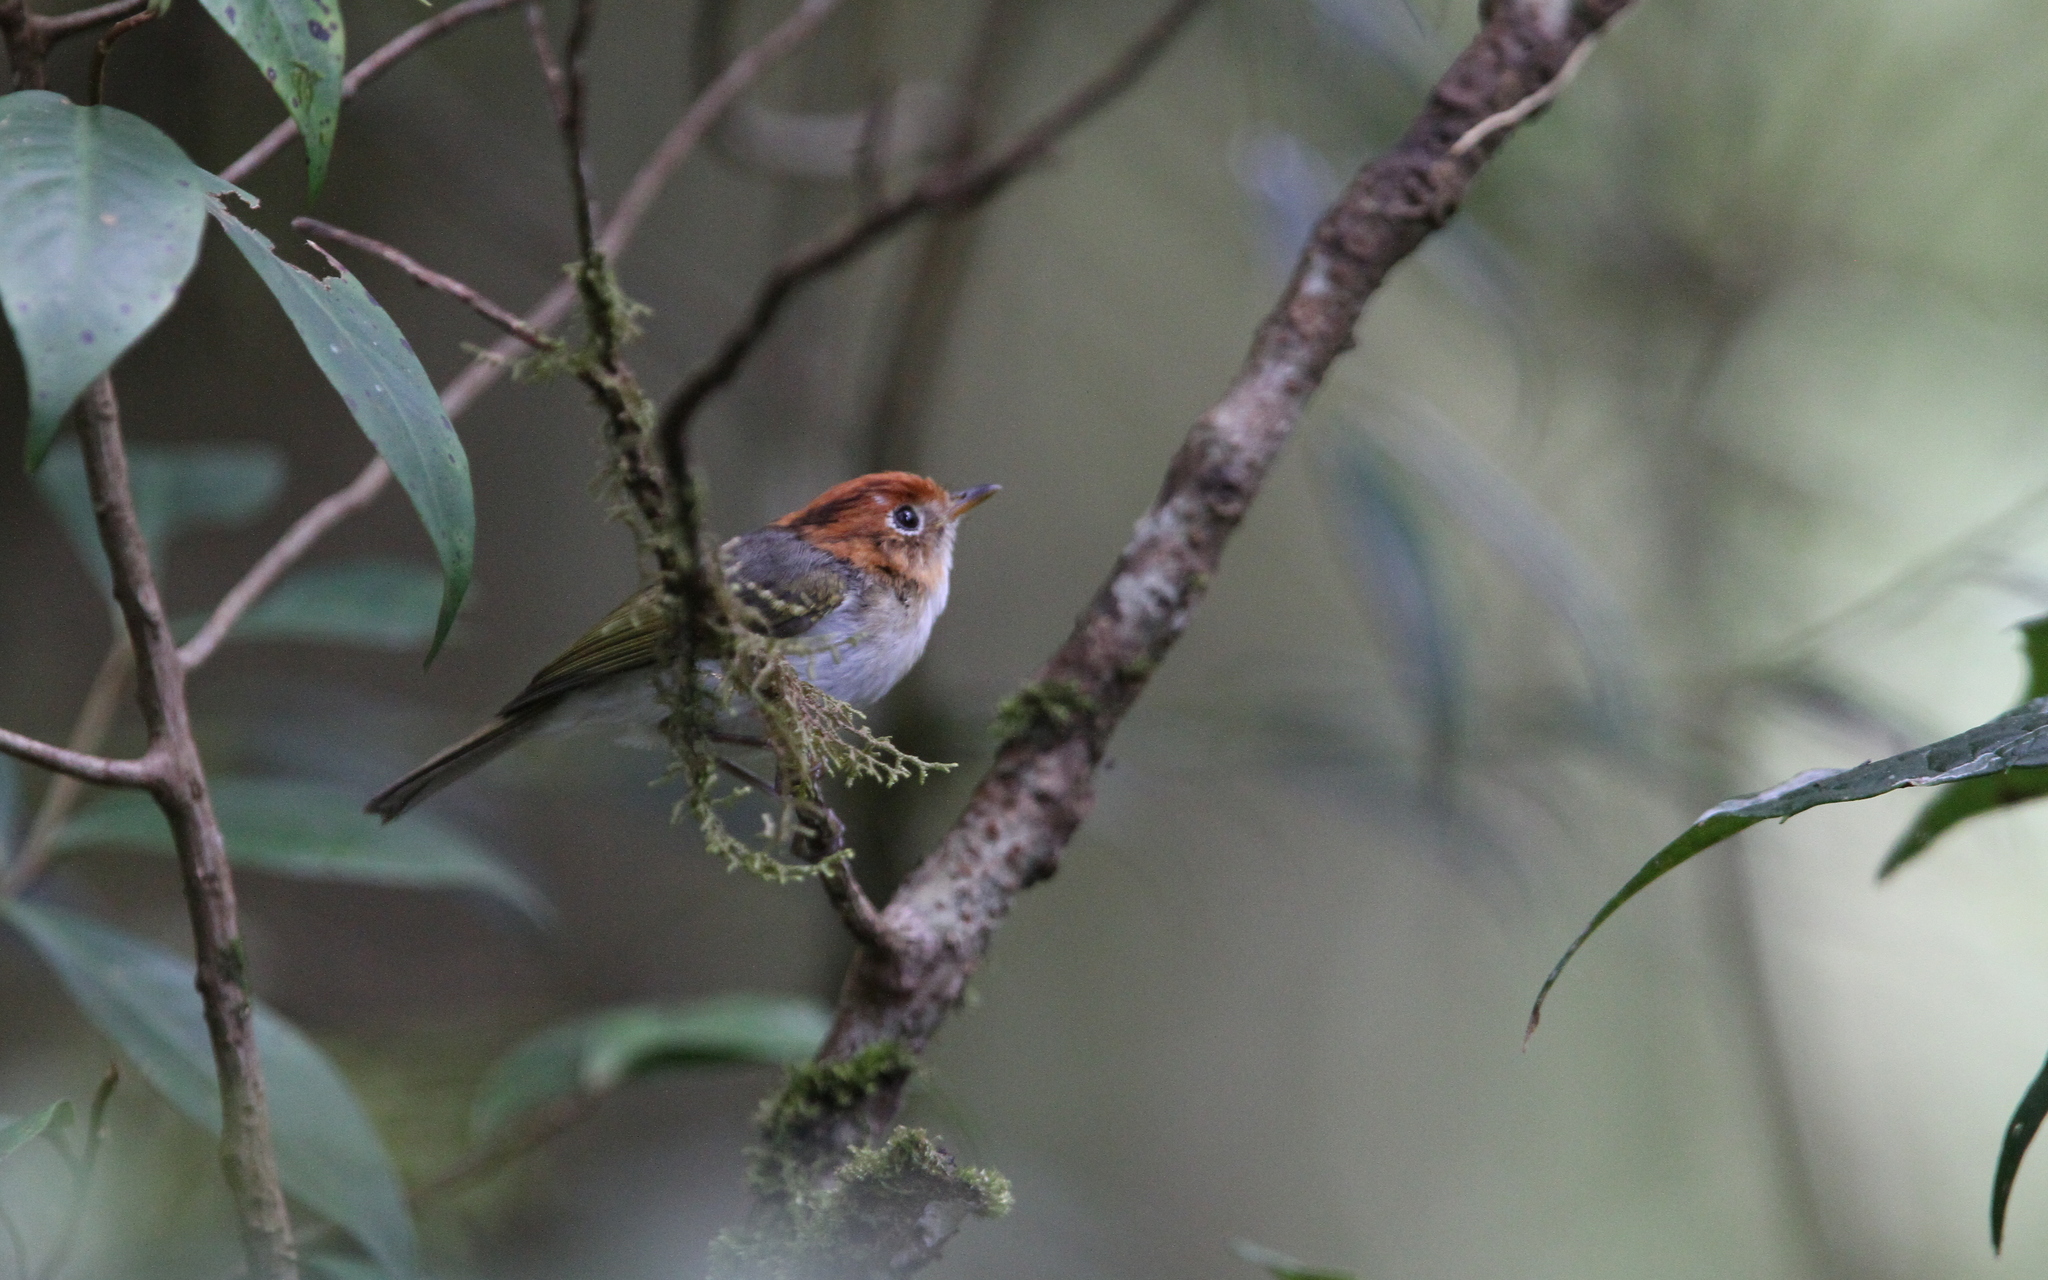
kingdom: Animalia
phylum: Chordata
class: Aves
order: Passeriformes
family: Phylloscopidae
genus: Seicercus
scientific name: Seicercus grammiceps
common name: Sunda warbler
